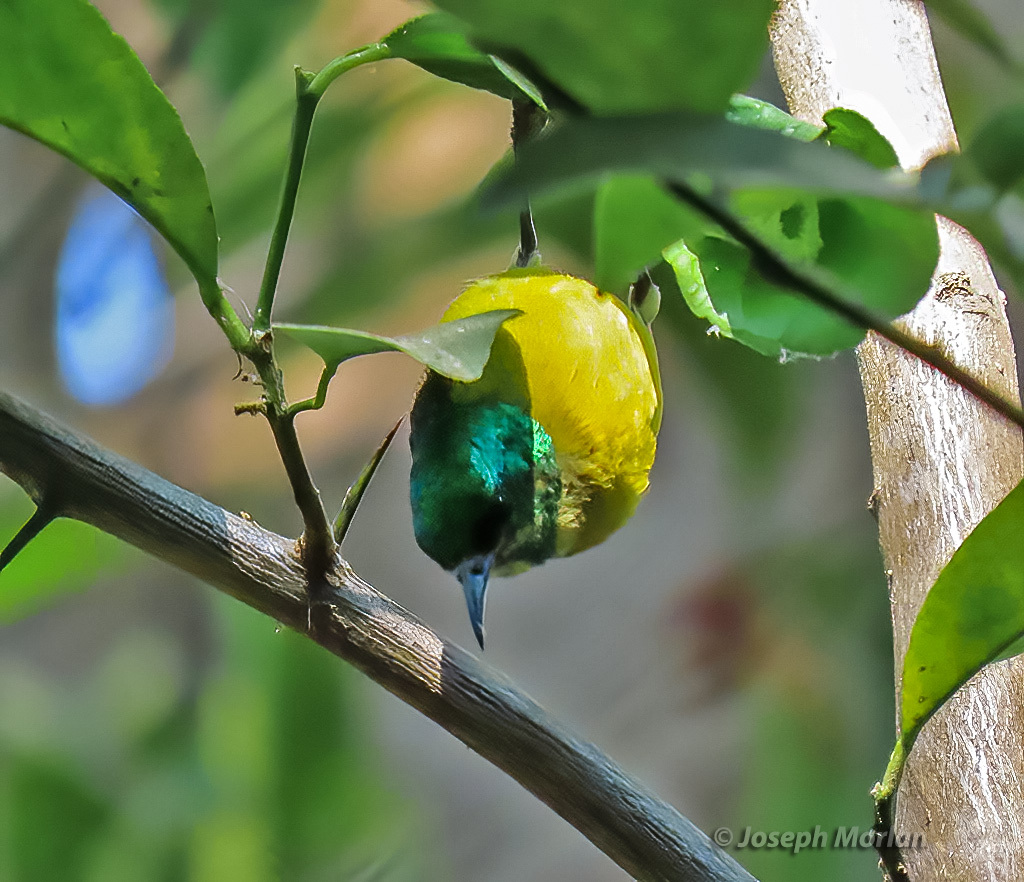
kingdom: Animalia
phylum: Chordata
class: Aves
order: Passeriformes
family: Nectariniidae
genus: Hedydipna
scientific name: Hedydipna collaris
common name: Collared sunbird
